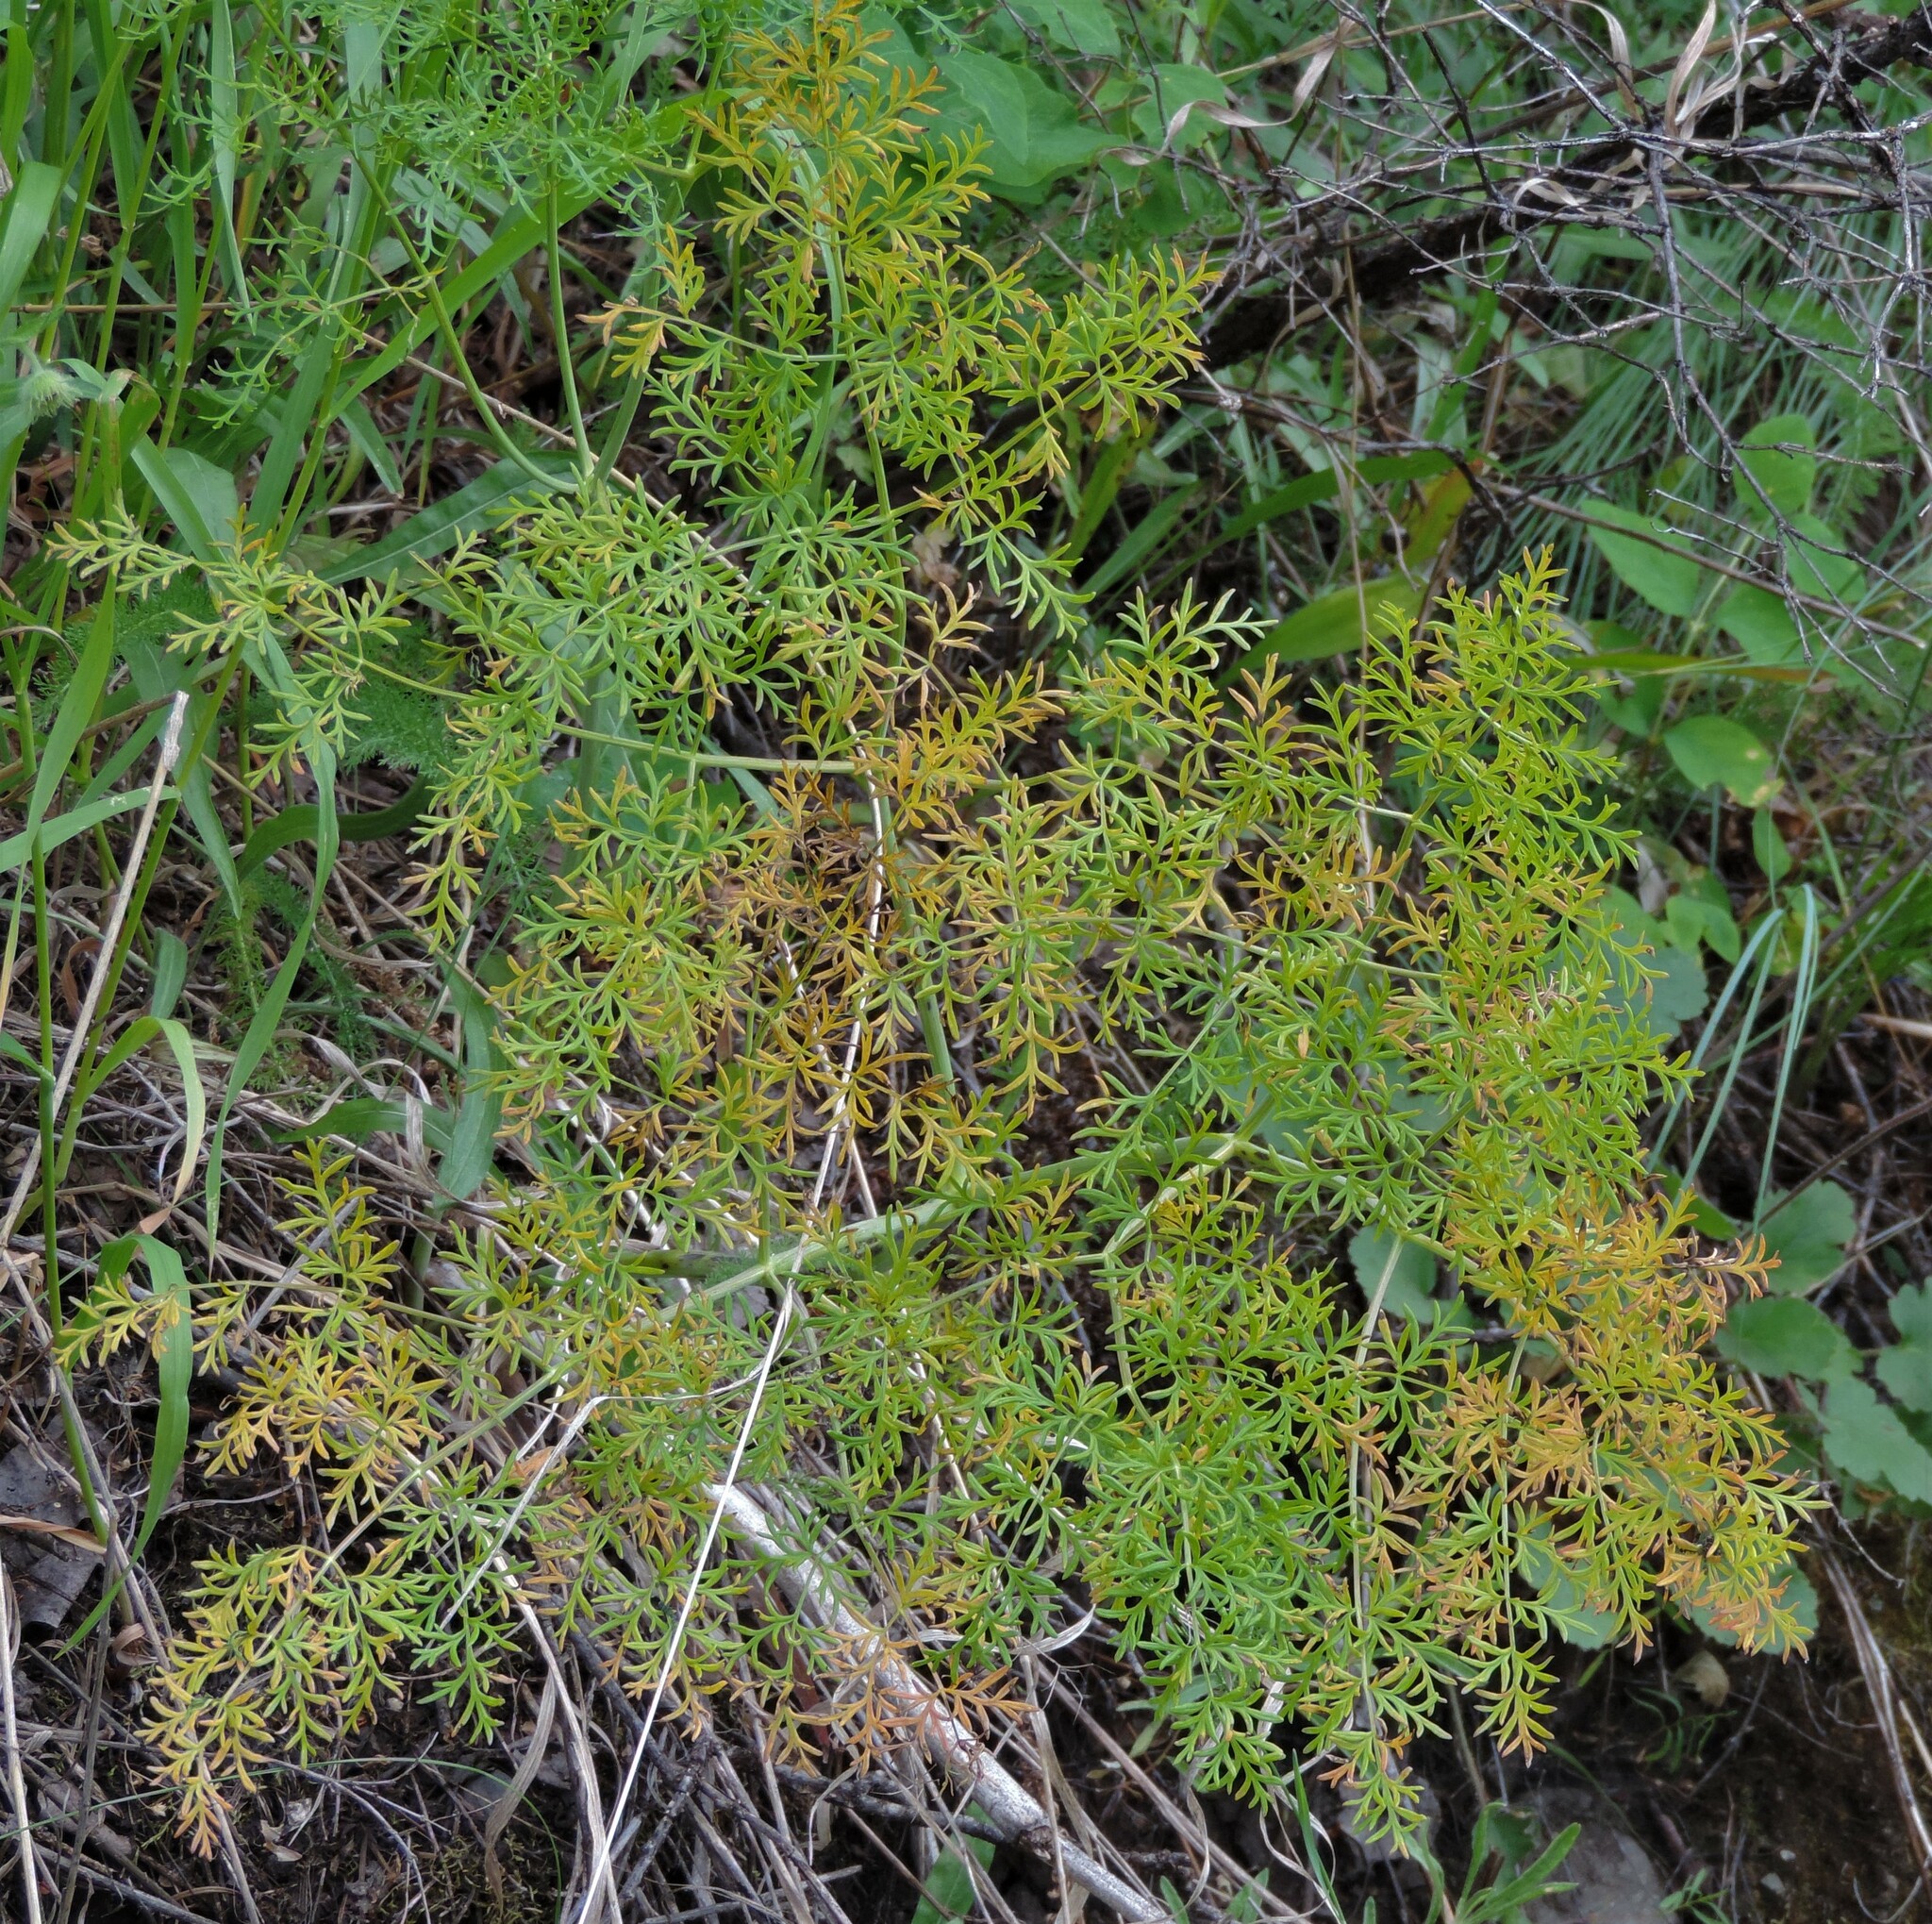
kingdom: Plantae
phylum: Tracheophyta
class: Magnoliopsida
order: Apiales
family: Apiaceae
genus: Lomatium
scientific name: Lomatium multifidum
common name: Carrot-leaved biscuitroot
